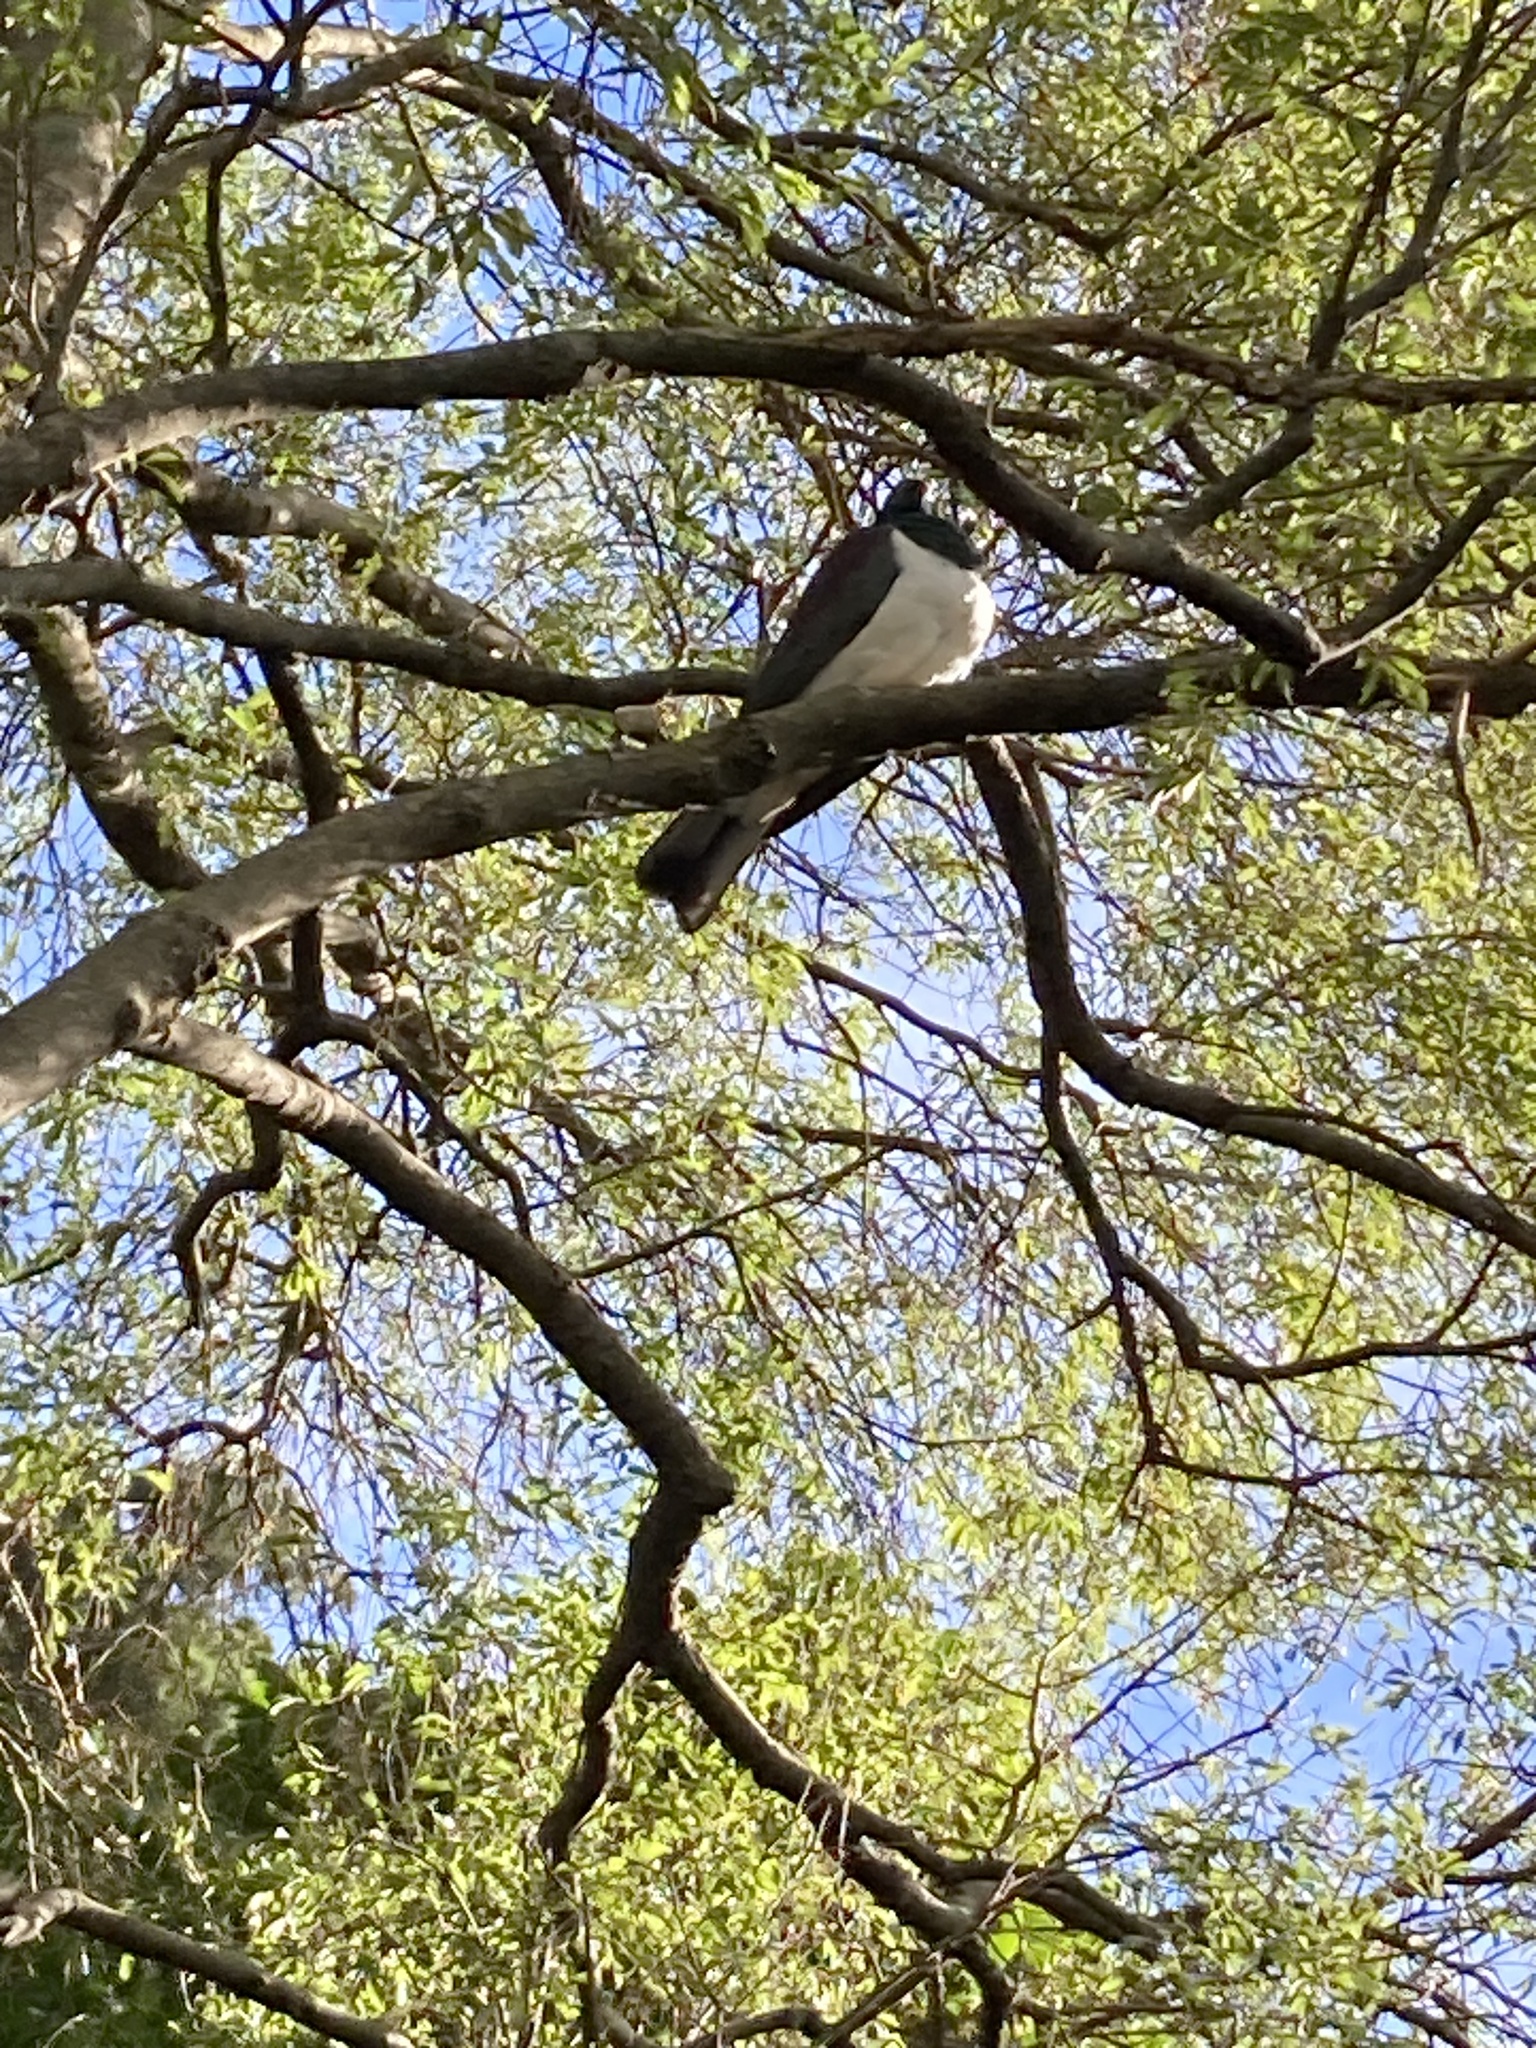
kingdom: Animalia
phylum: Chordata
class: Aves
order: Columbiformes
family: Columbidae
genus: Hemiphaga
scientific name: Hemiphaga novaeseelandiae
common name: New zealand pigeon
